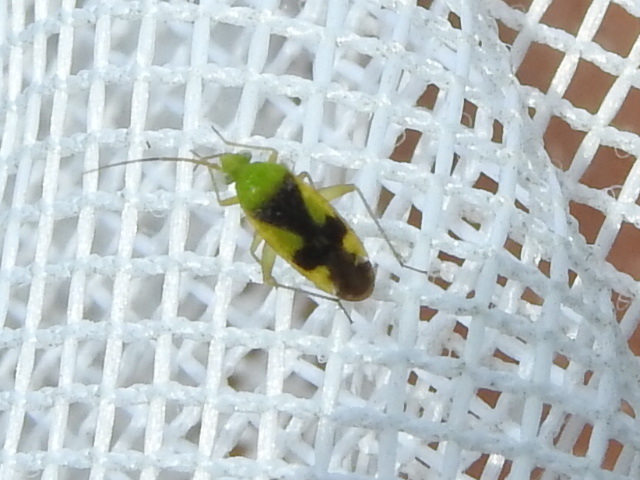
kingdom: Animalia
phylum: Arthropoda
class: Insecta
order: Hemiptera
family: Miridae
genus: Reuteroscopus
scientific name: Reuteroscopus ornatus
